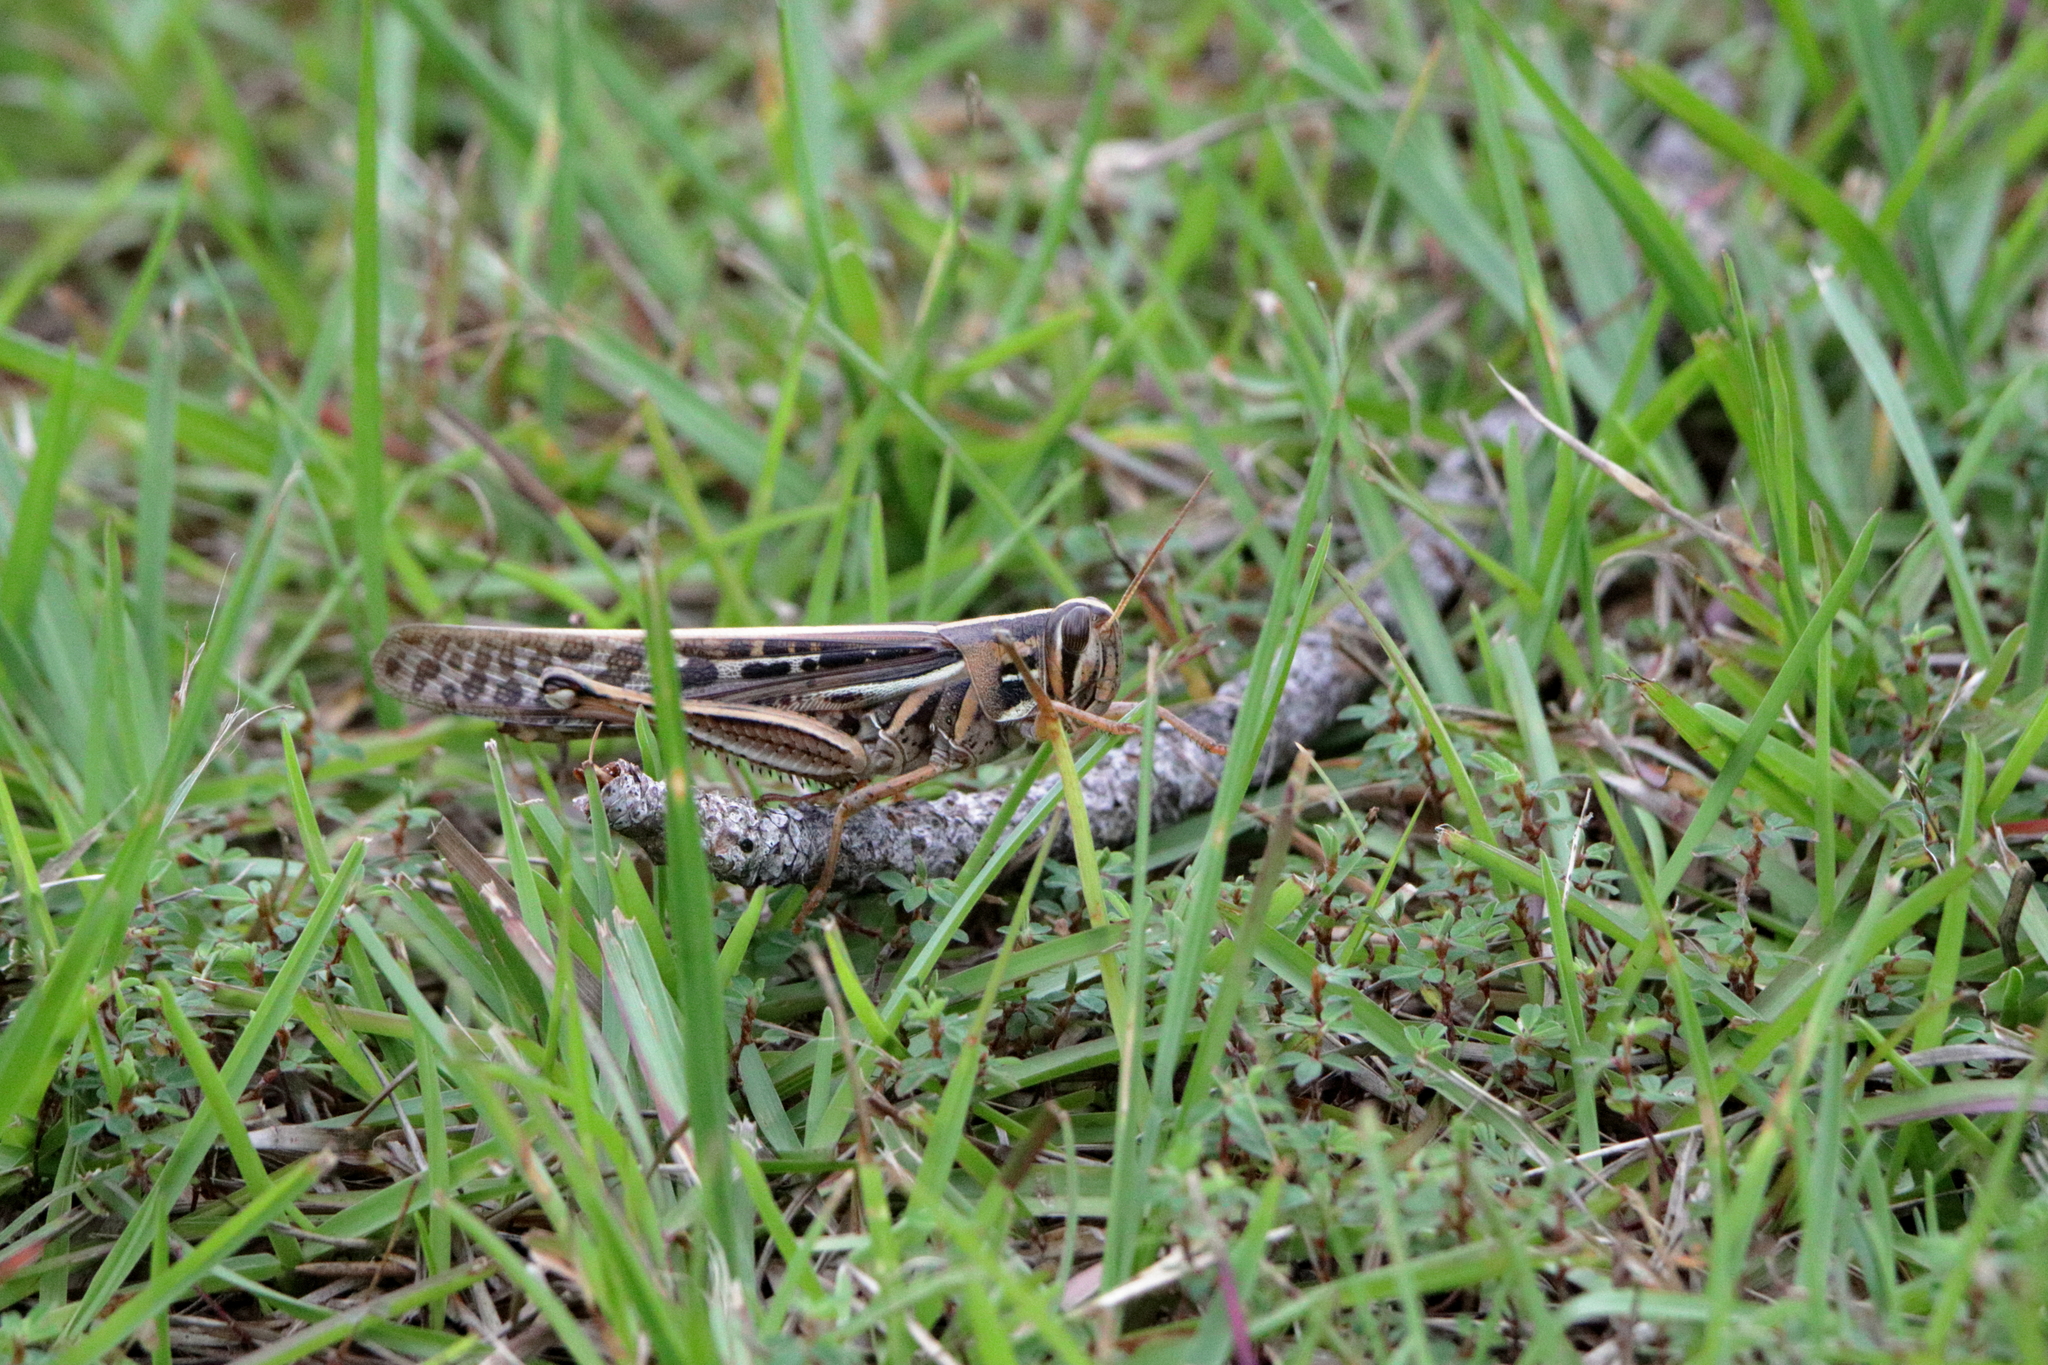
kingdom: Animalia
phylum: Arthropoda
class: Insecta
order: Orthoptera
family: Acrididae
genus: Schistocerca
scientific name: Schistocerca americana
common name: American bird locust
